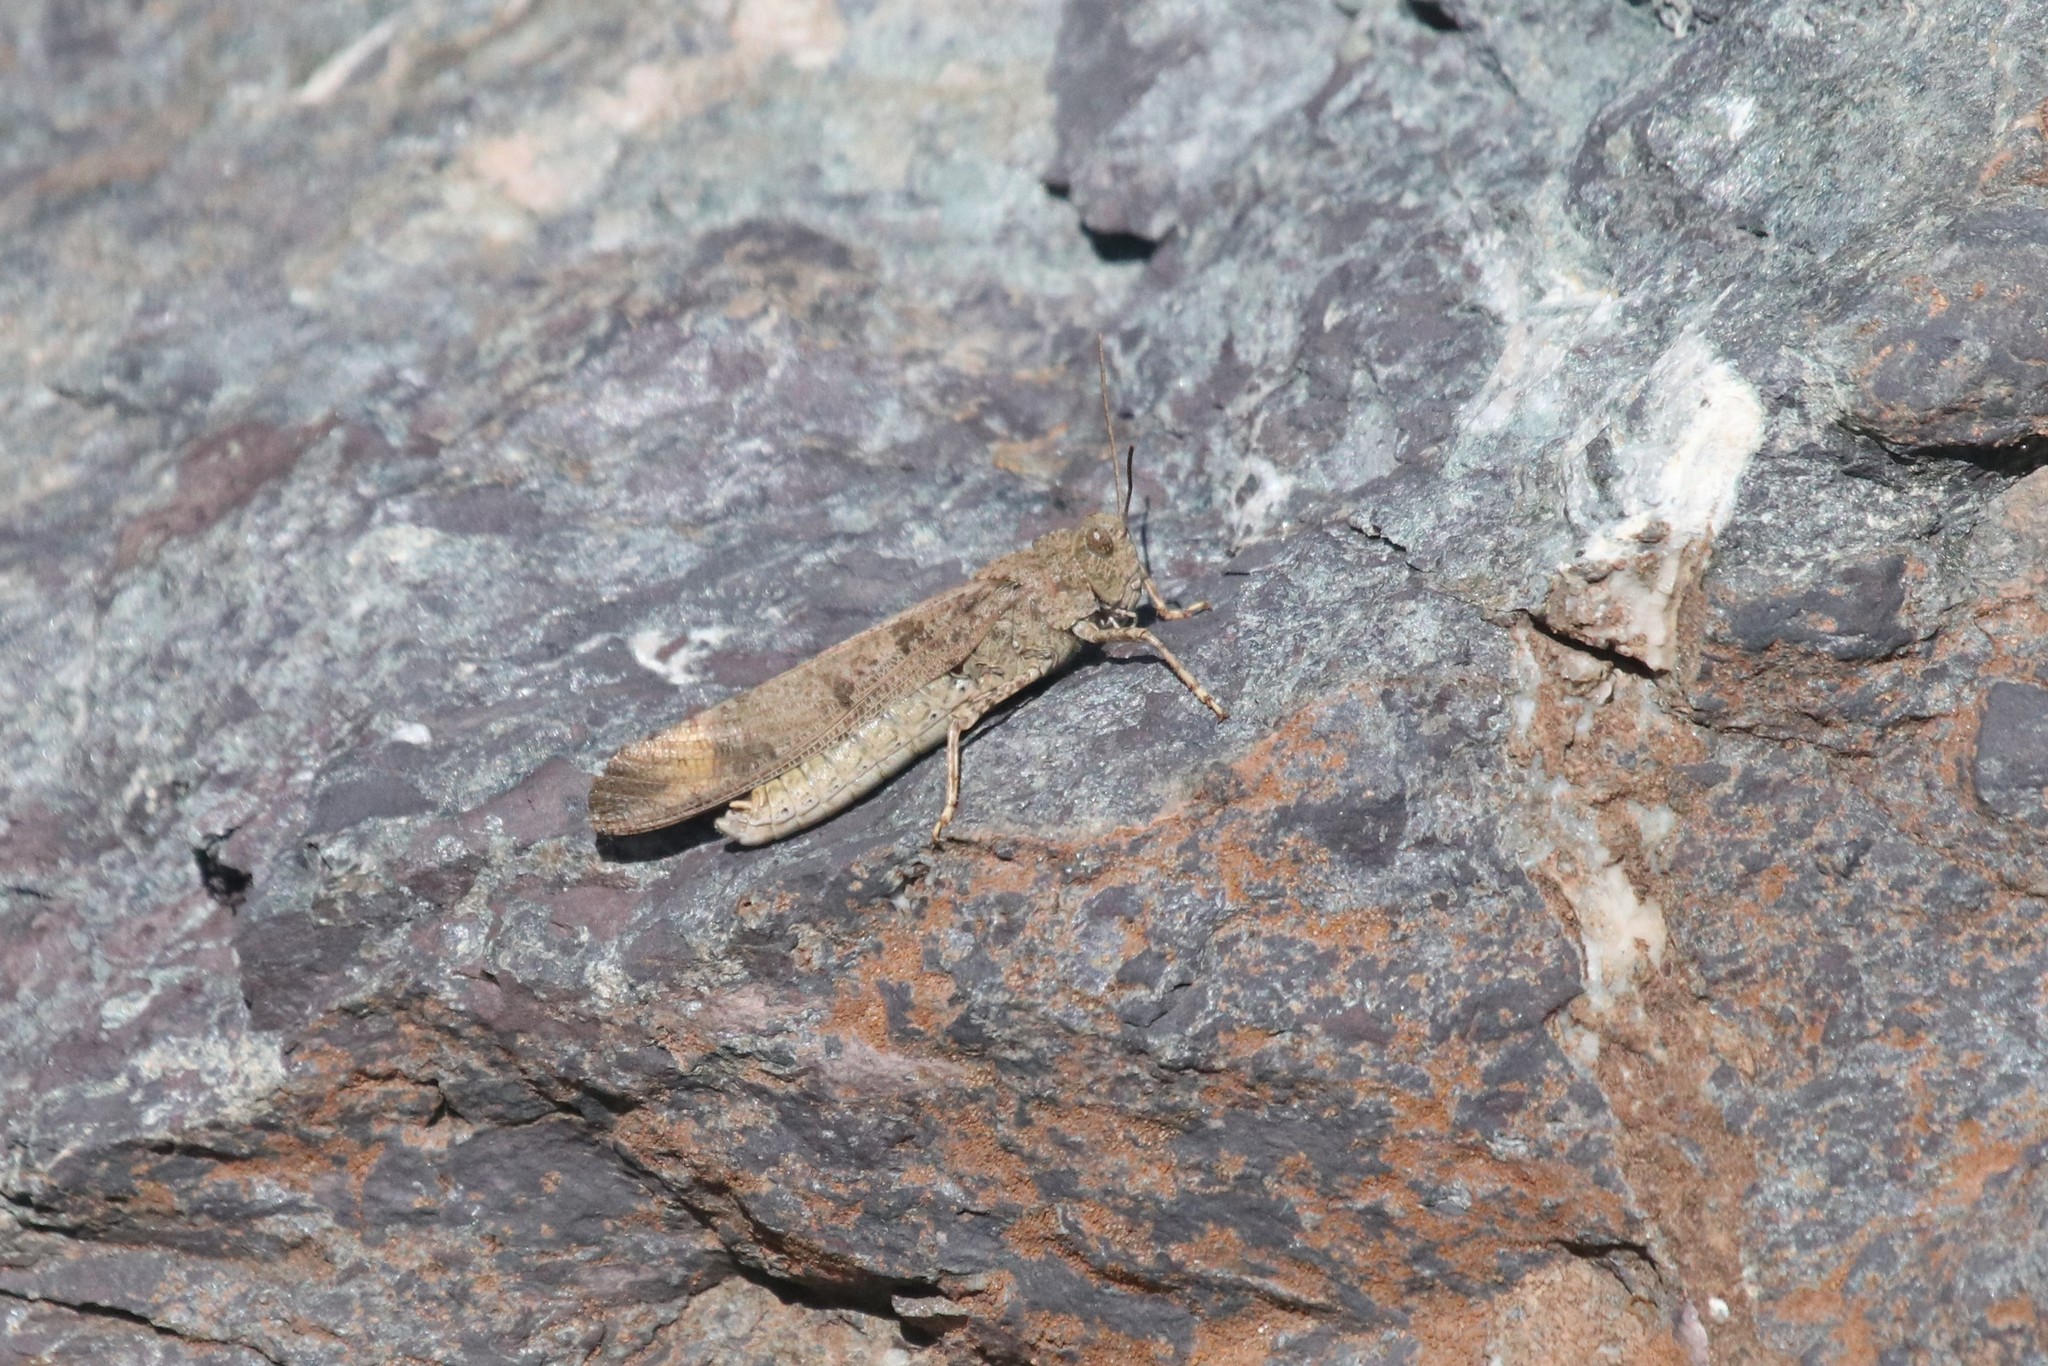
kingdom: Animalia
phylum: Arthropoda
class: Insecta
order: Orthoptera
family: Acrididae
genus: Dissosteira
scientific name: Dissosteira carolina
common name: Carolina grasshopper
